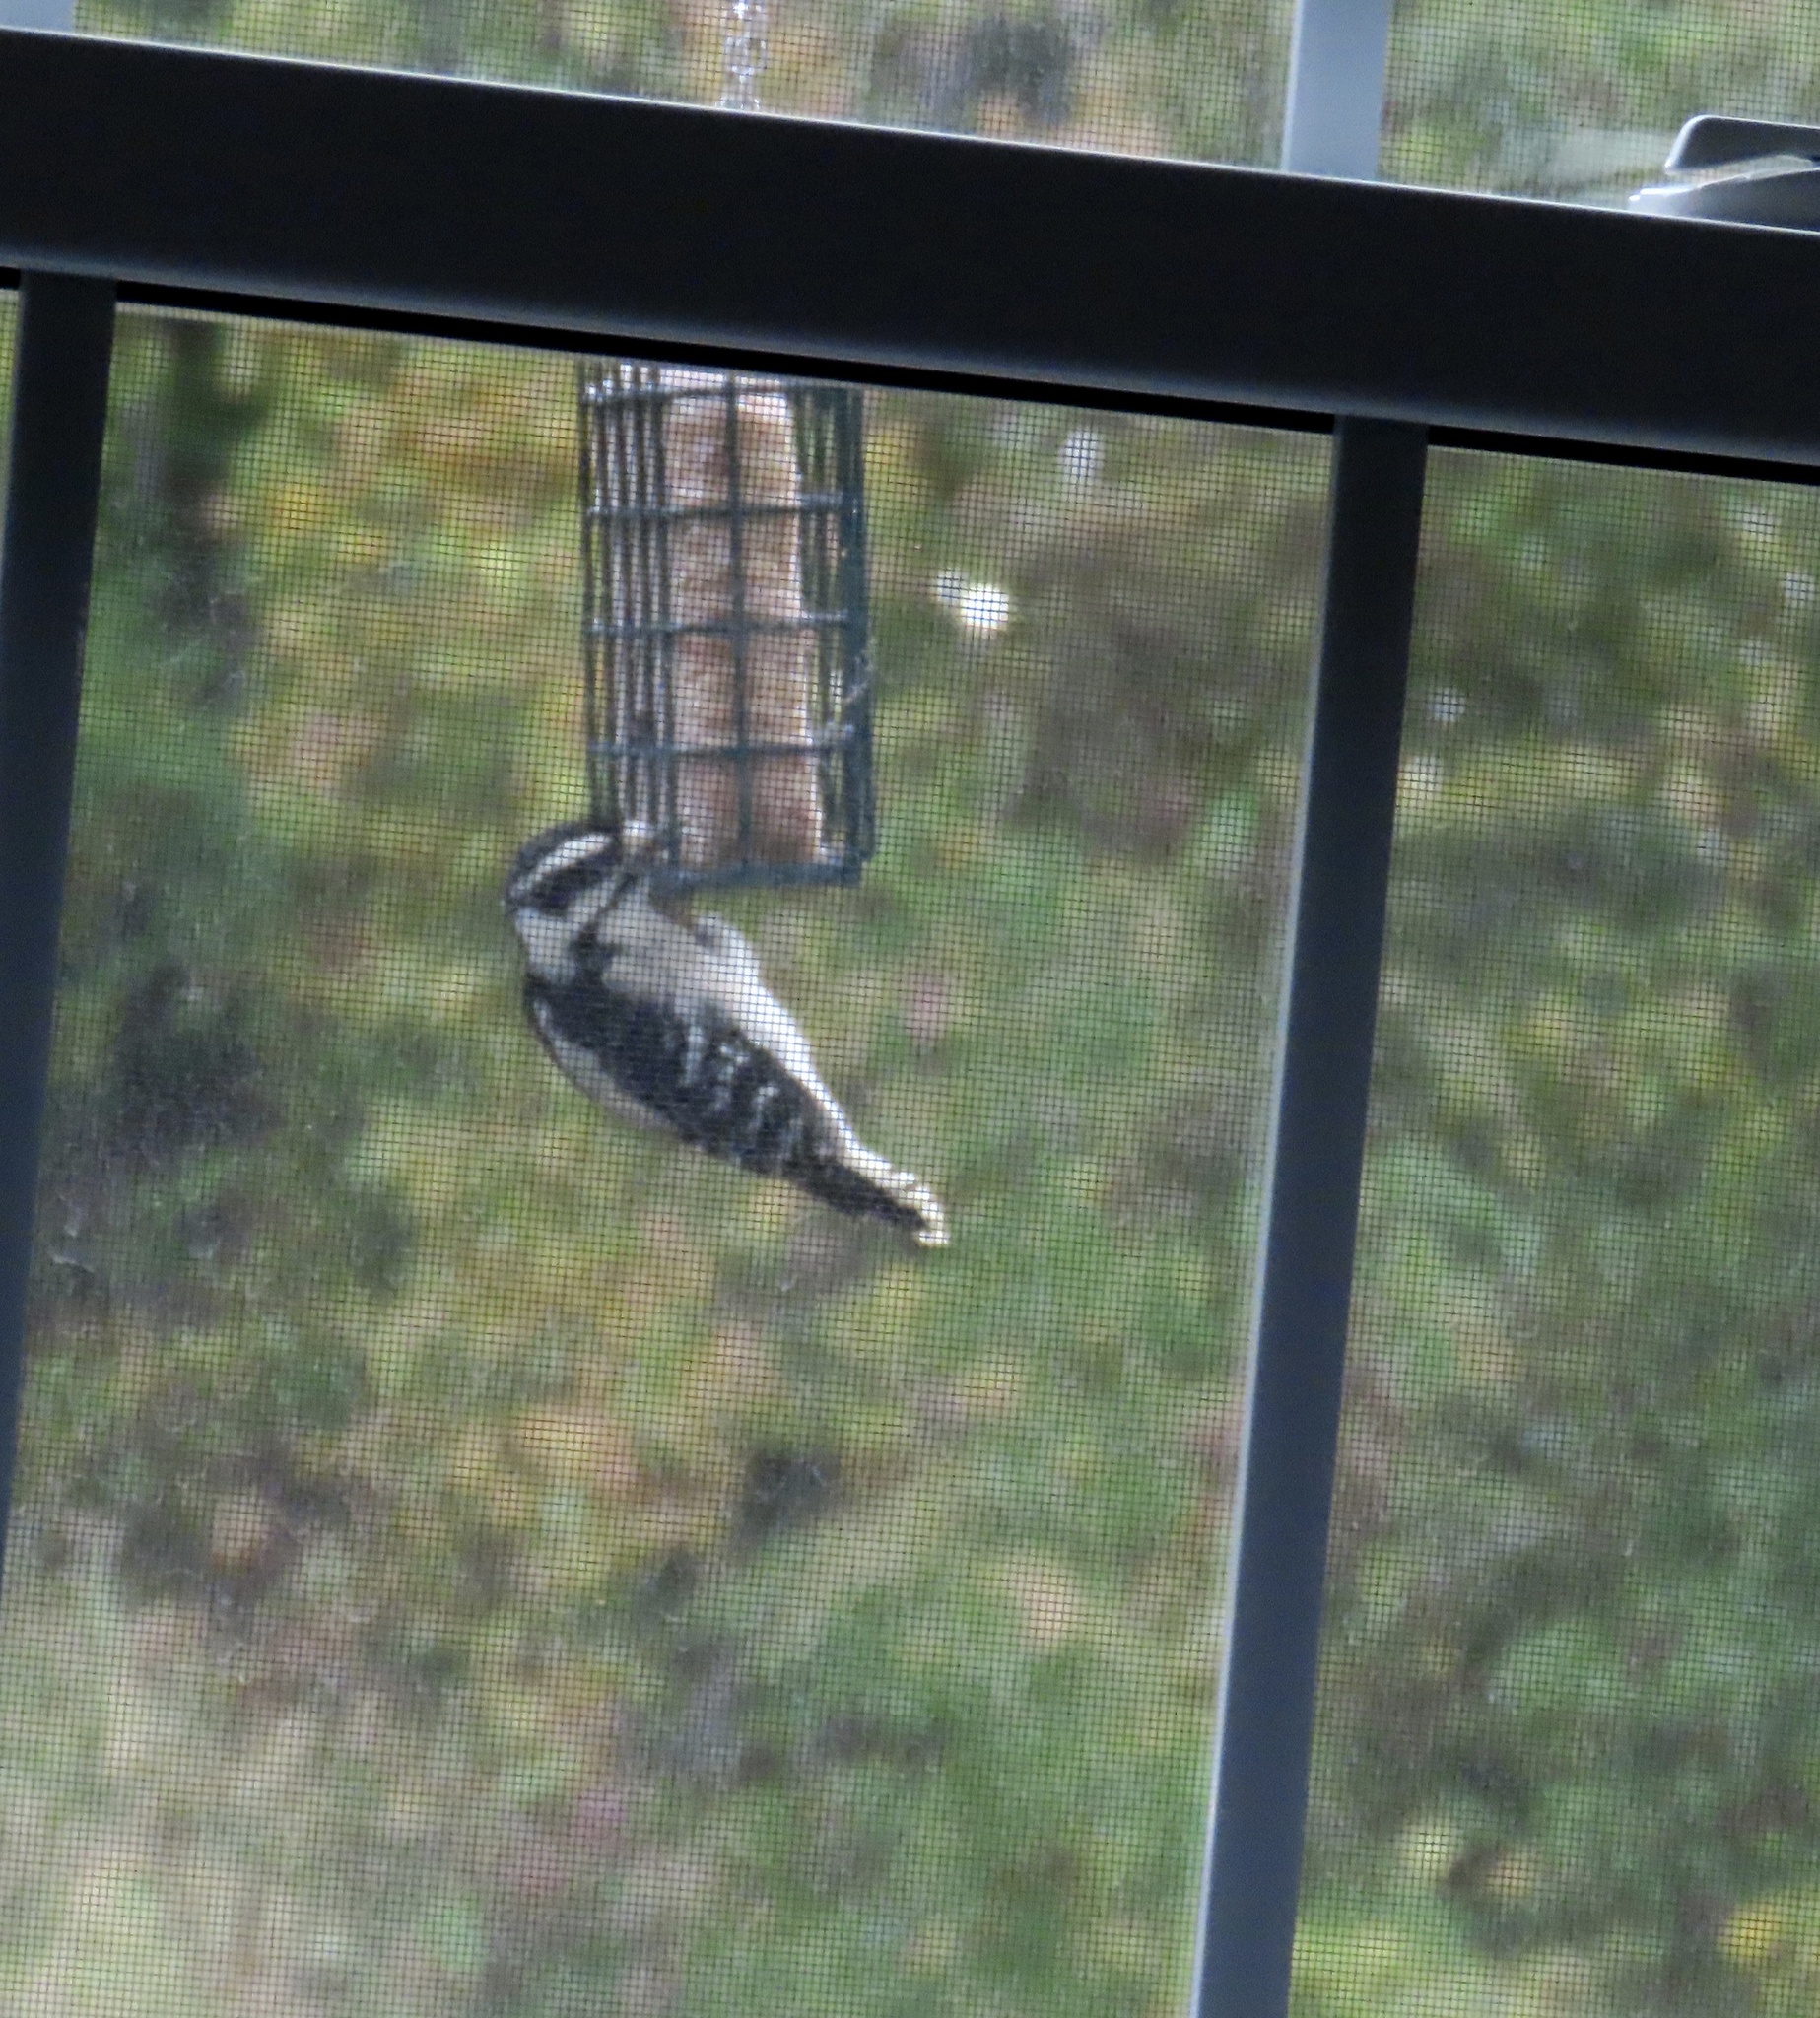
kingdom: Animalia
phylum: Chordata
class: Aves
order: Piciformes
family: Picidae
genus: Dryobates
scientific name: Dryobates pubescens
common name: Downy woodpecker
